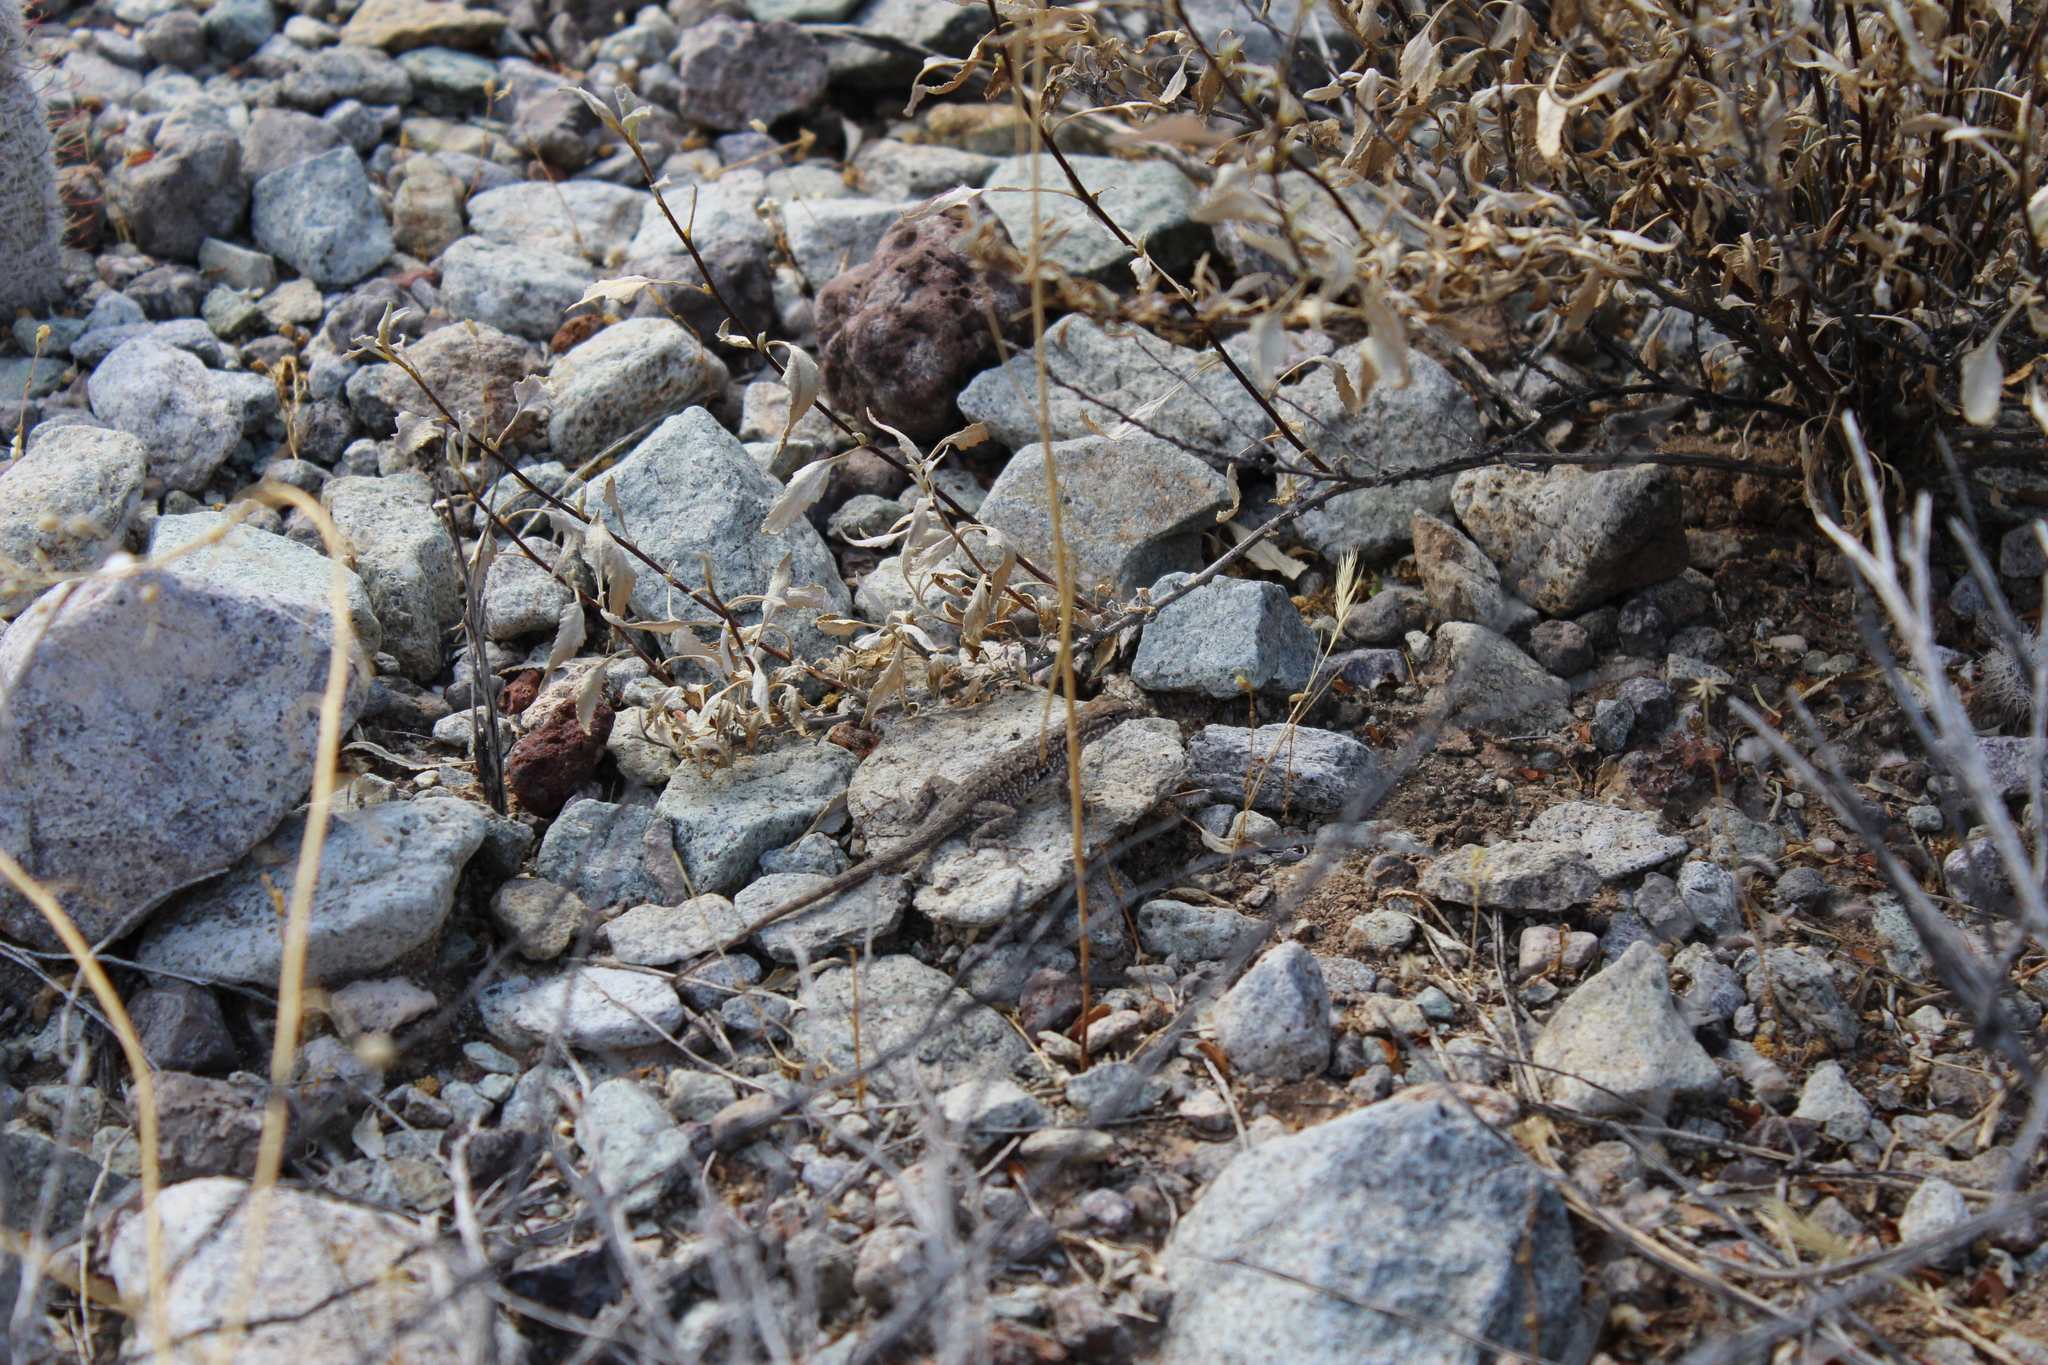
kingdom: Animalia
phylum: Chordata
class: Squamata
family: Phrynosomatidae
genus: Uta
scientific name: Uta stansburiana
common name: Side-blotched lizard
